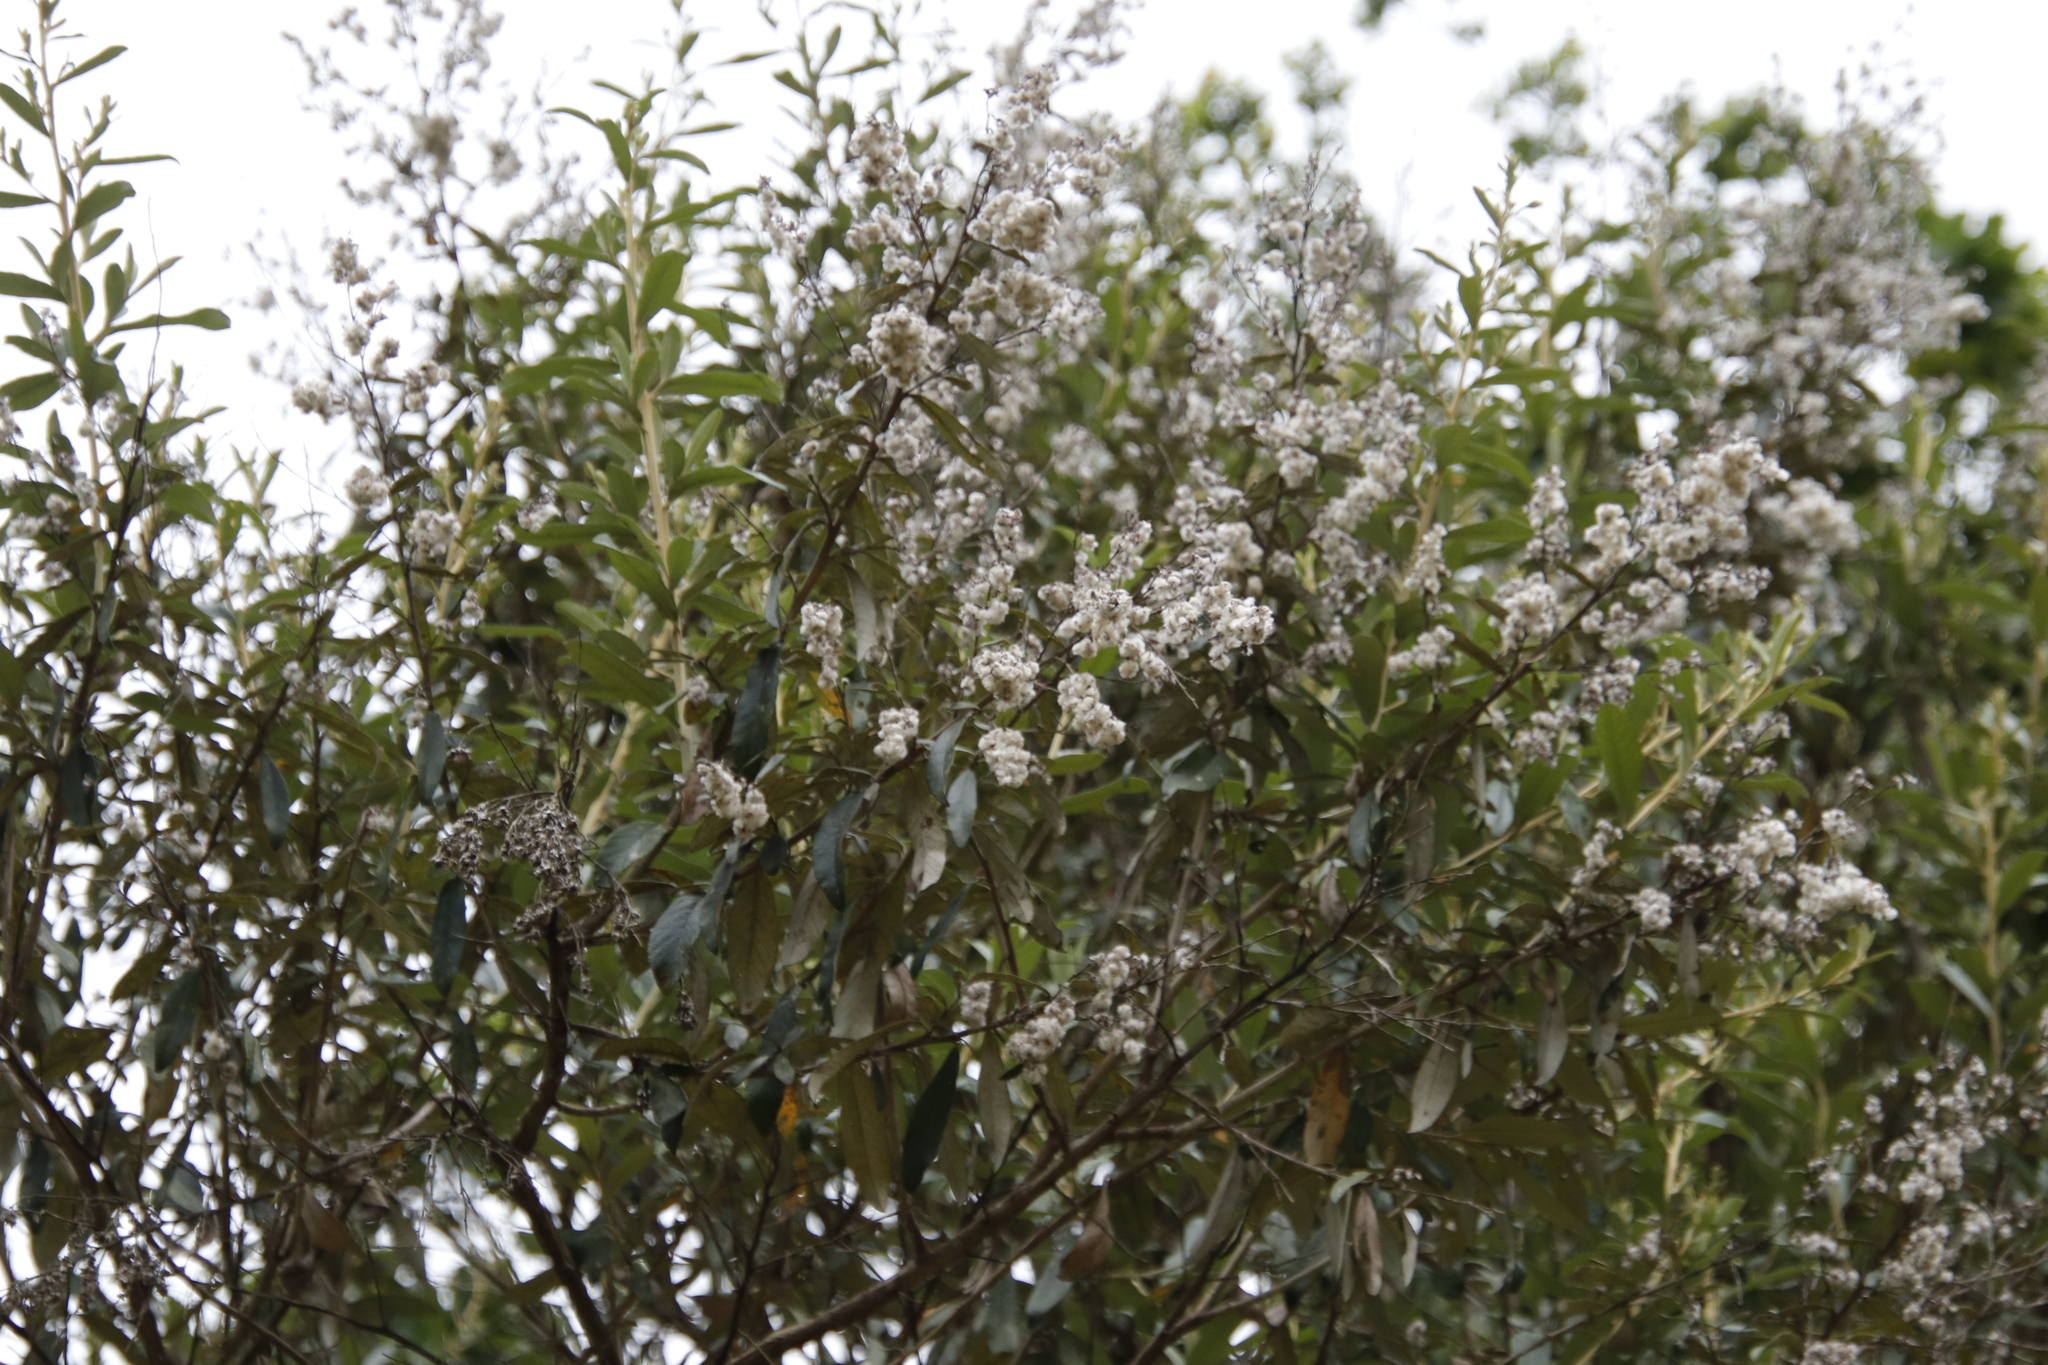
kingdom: Plantae
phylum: Tracheophyta
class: Magnoliopsida
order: Asterales
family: Asteraceae
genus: Tarchonanthus
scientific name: Tarchonanthus littoralis
